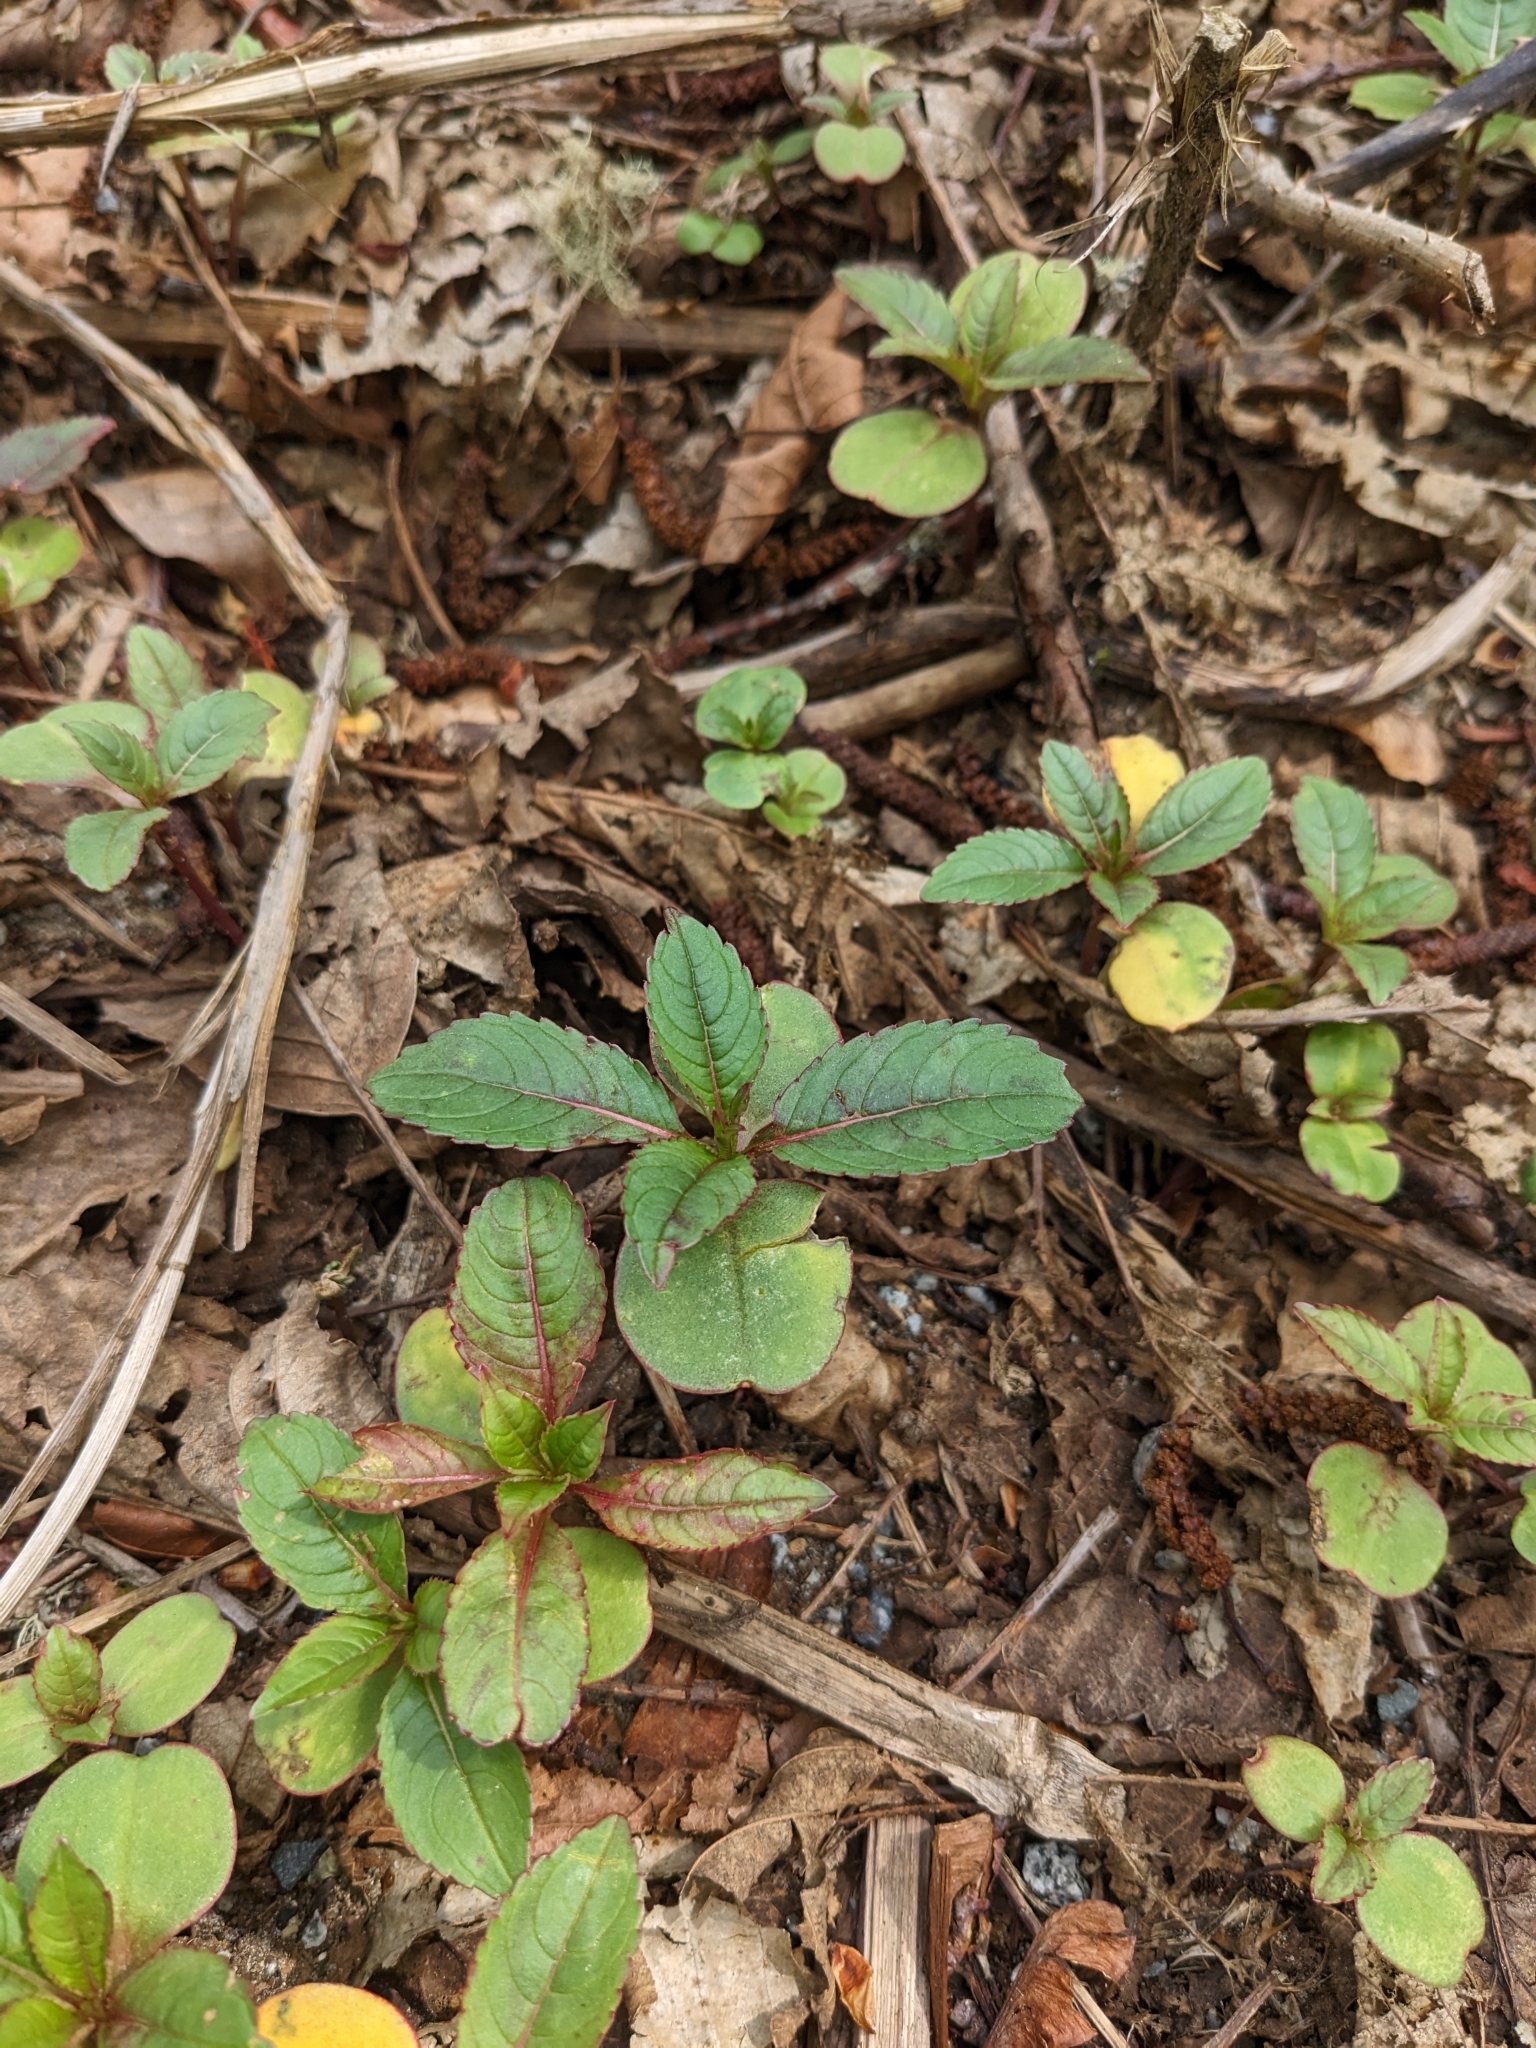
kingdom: Plantae
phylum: Tracheophyta
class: Magnoliopsida
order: Ericales
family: Balsaminaceae
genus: Impatiens
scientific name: Impatiens glandulifera
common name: Himalayan balsam
